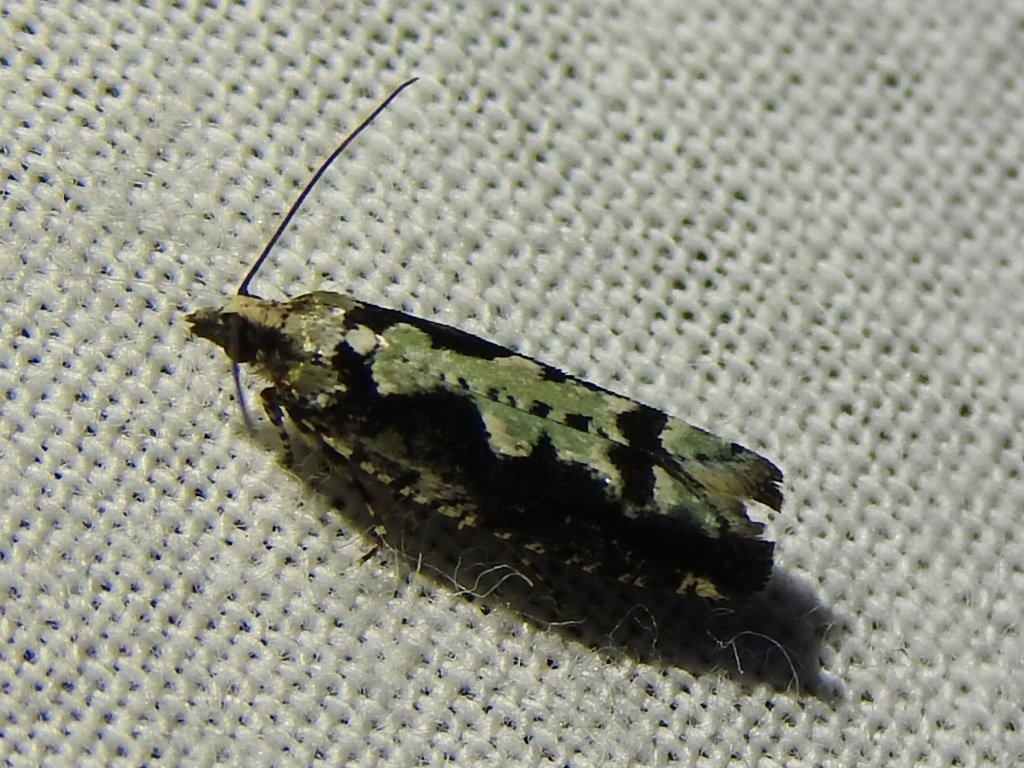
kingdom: Animalia
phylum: Arthropoda
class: Insecta
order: Lepidoptera
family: Tortricidae
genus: Chimoptesis
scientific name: Chimoptesis pennsylvaniana
